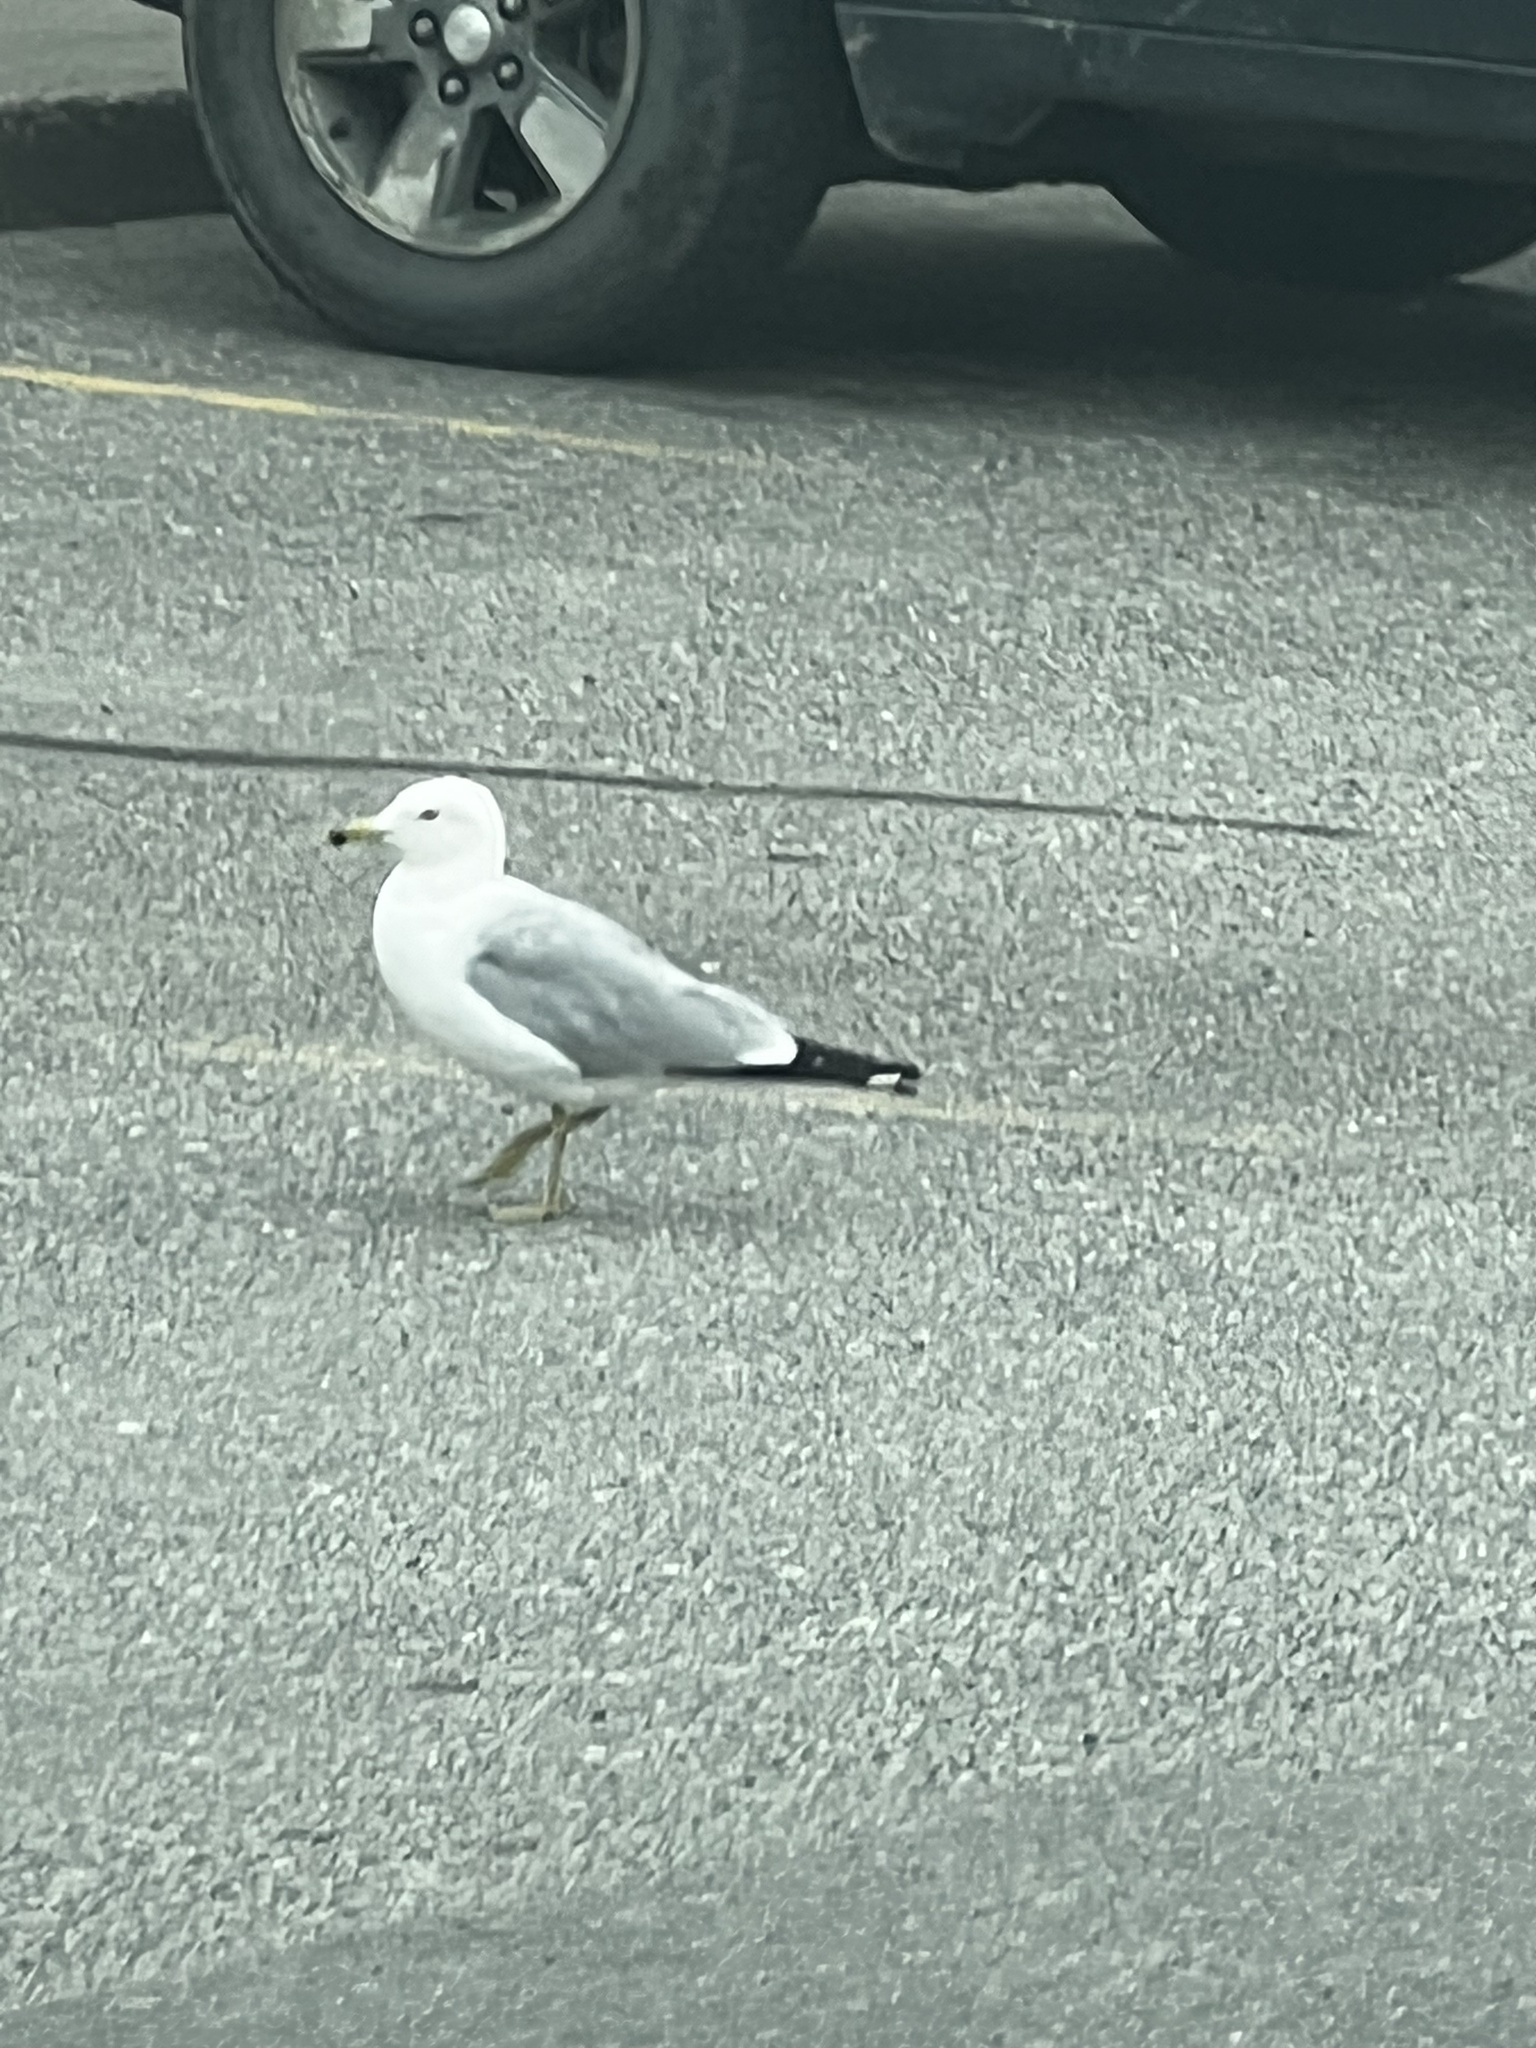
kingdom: Animalia
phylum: Chordata
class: Aves
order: Charadriiformes
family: Laridae
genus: Larus
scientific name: Larus delawarensis
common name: Ring-billed gull
